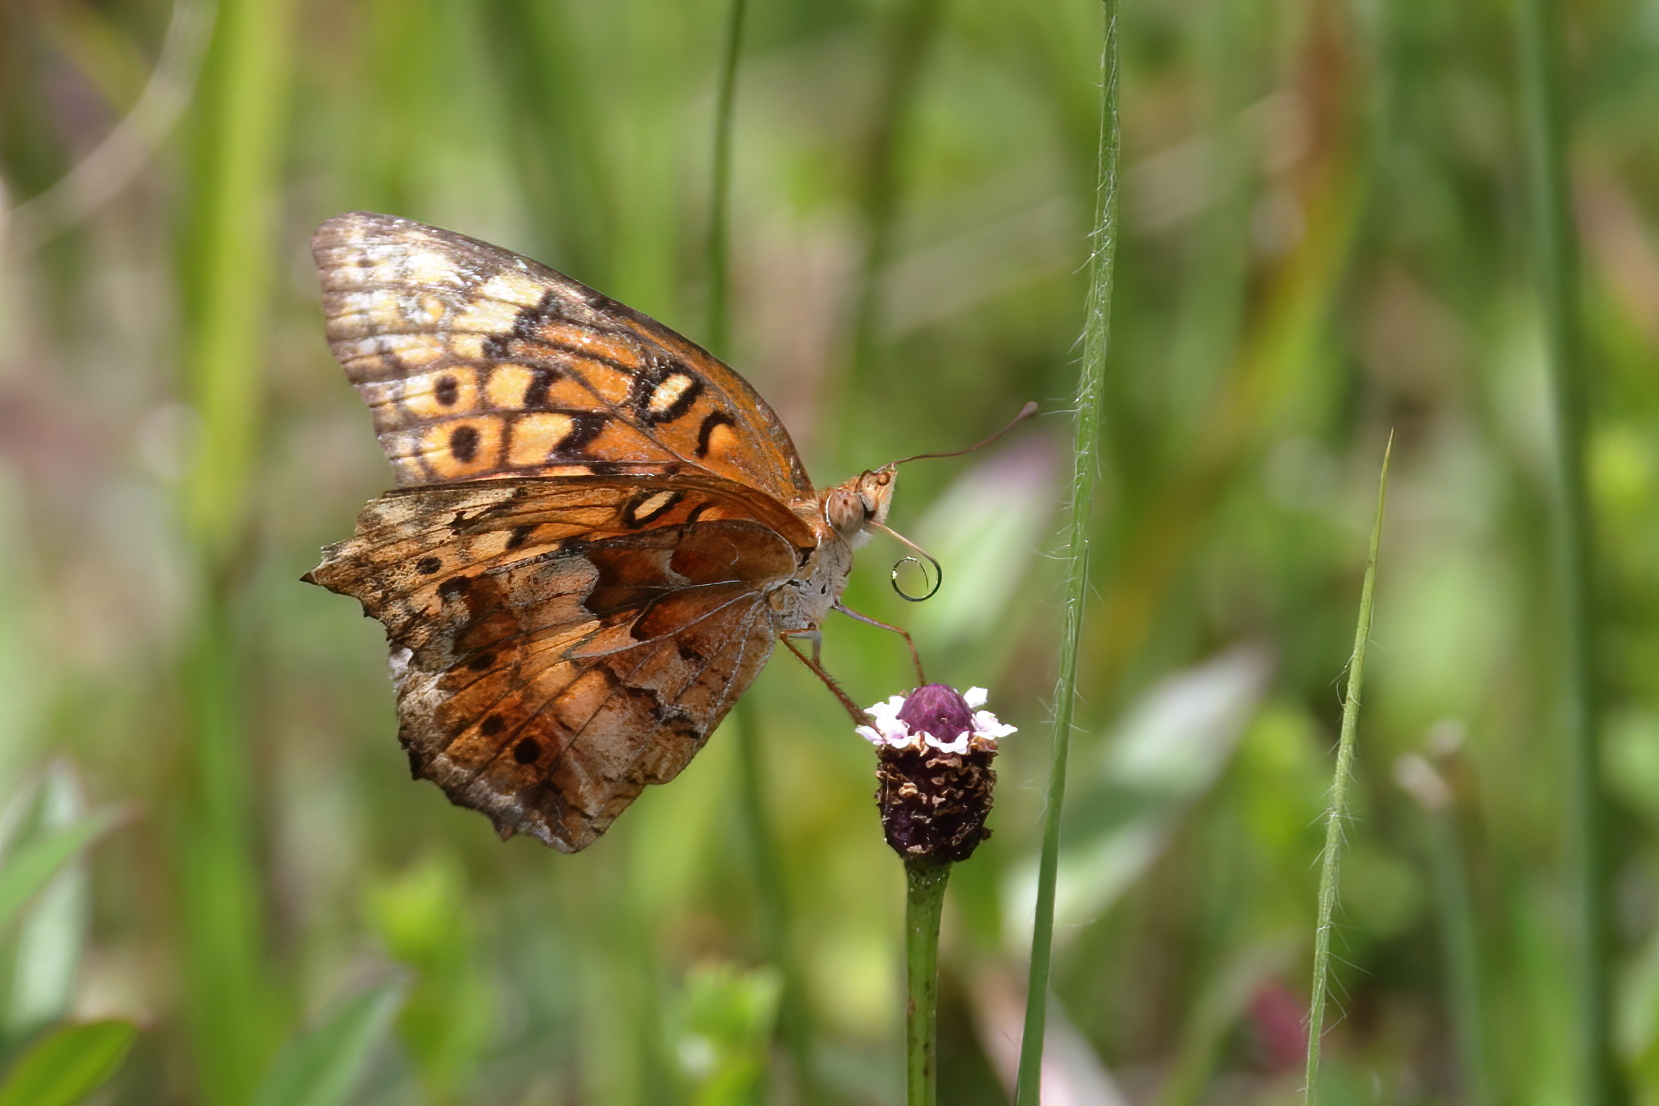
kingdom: Animalia
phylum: Arthropoda
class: Insecta
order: Lepidoptera
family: Nymphalidae
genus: Euptoieta
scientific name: Euptoieta claudia
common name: Variegated fritillary
